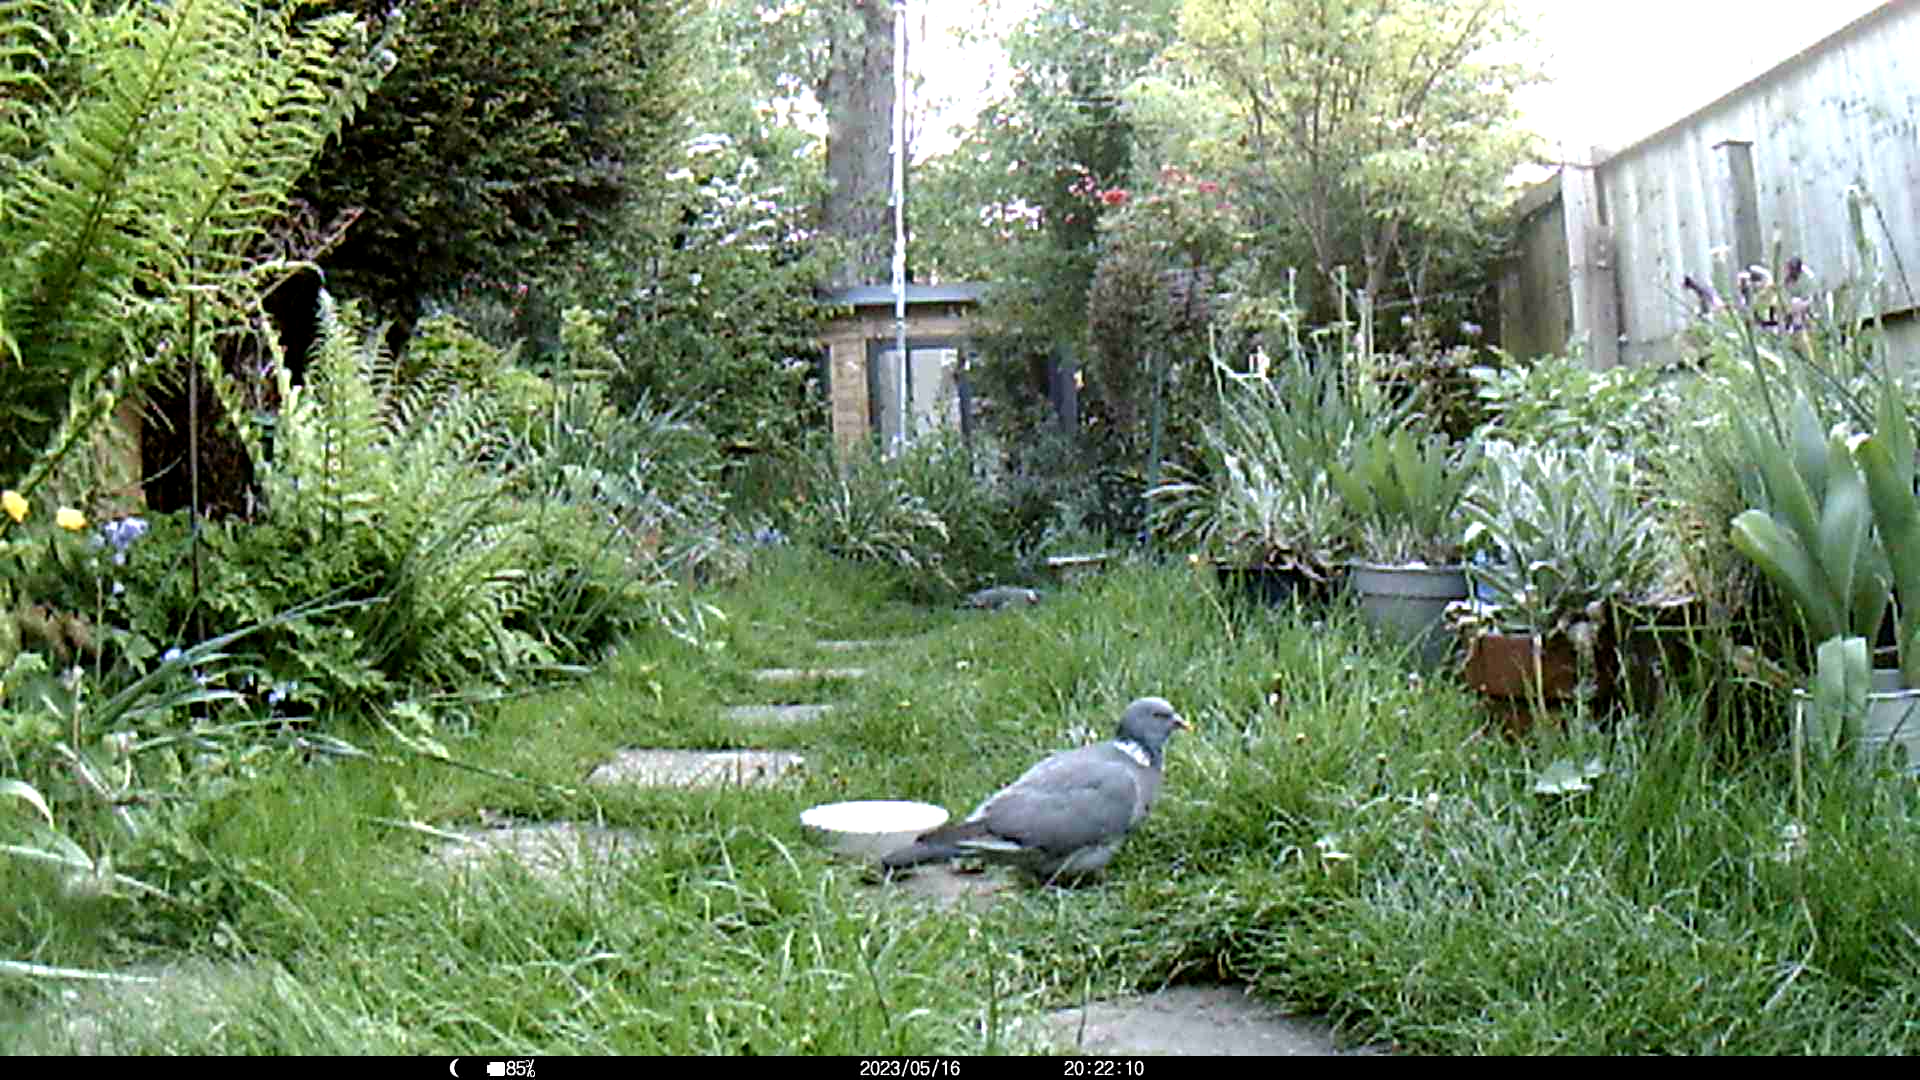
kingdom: Animalia
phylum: Chordata
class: Aves
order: Columbiformes
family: Columbidae
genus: Columba
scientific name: Columba palumbus
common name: Common wood pigeon
